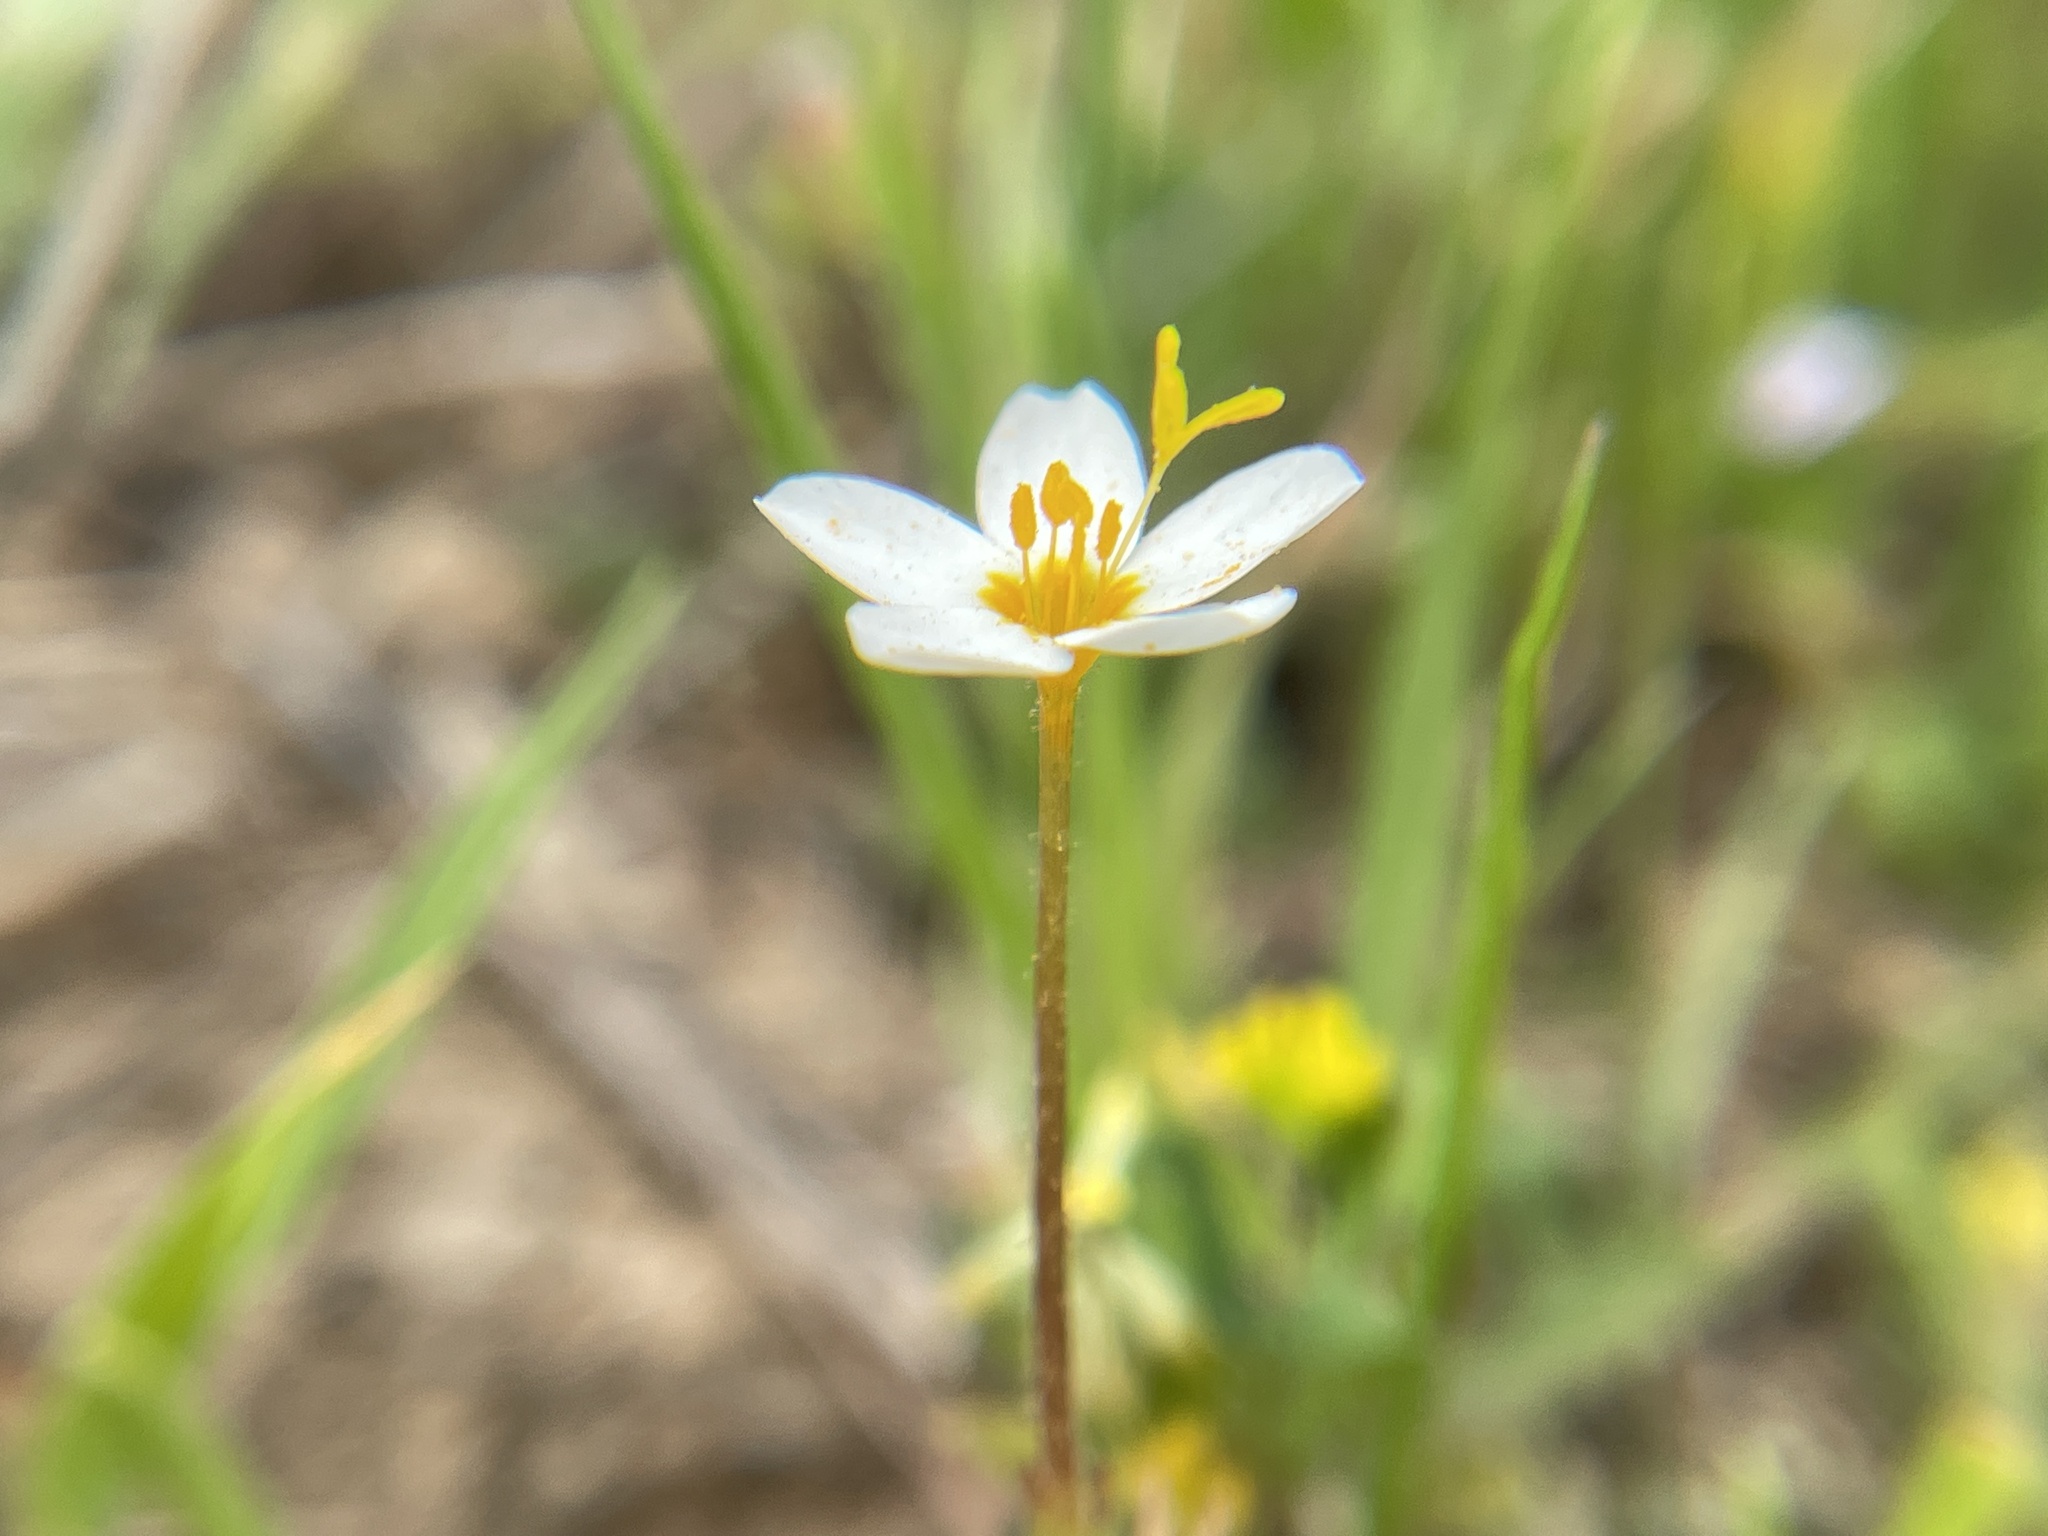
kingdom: Plantae
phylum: Tracheophyta
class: Magnoliopsida
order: Ericales
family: Polemoniaceae
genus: Leptosiphon
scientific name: Leptosiphon parviflorus
